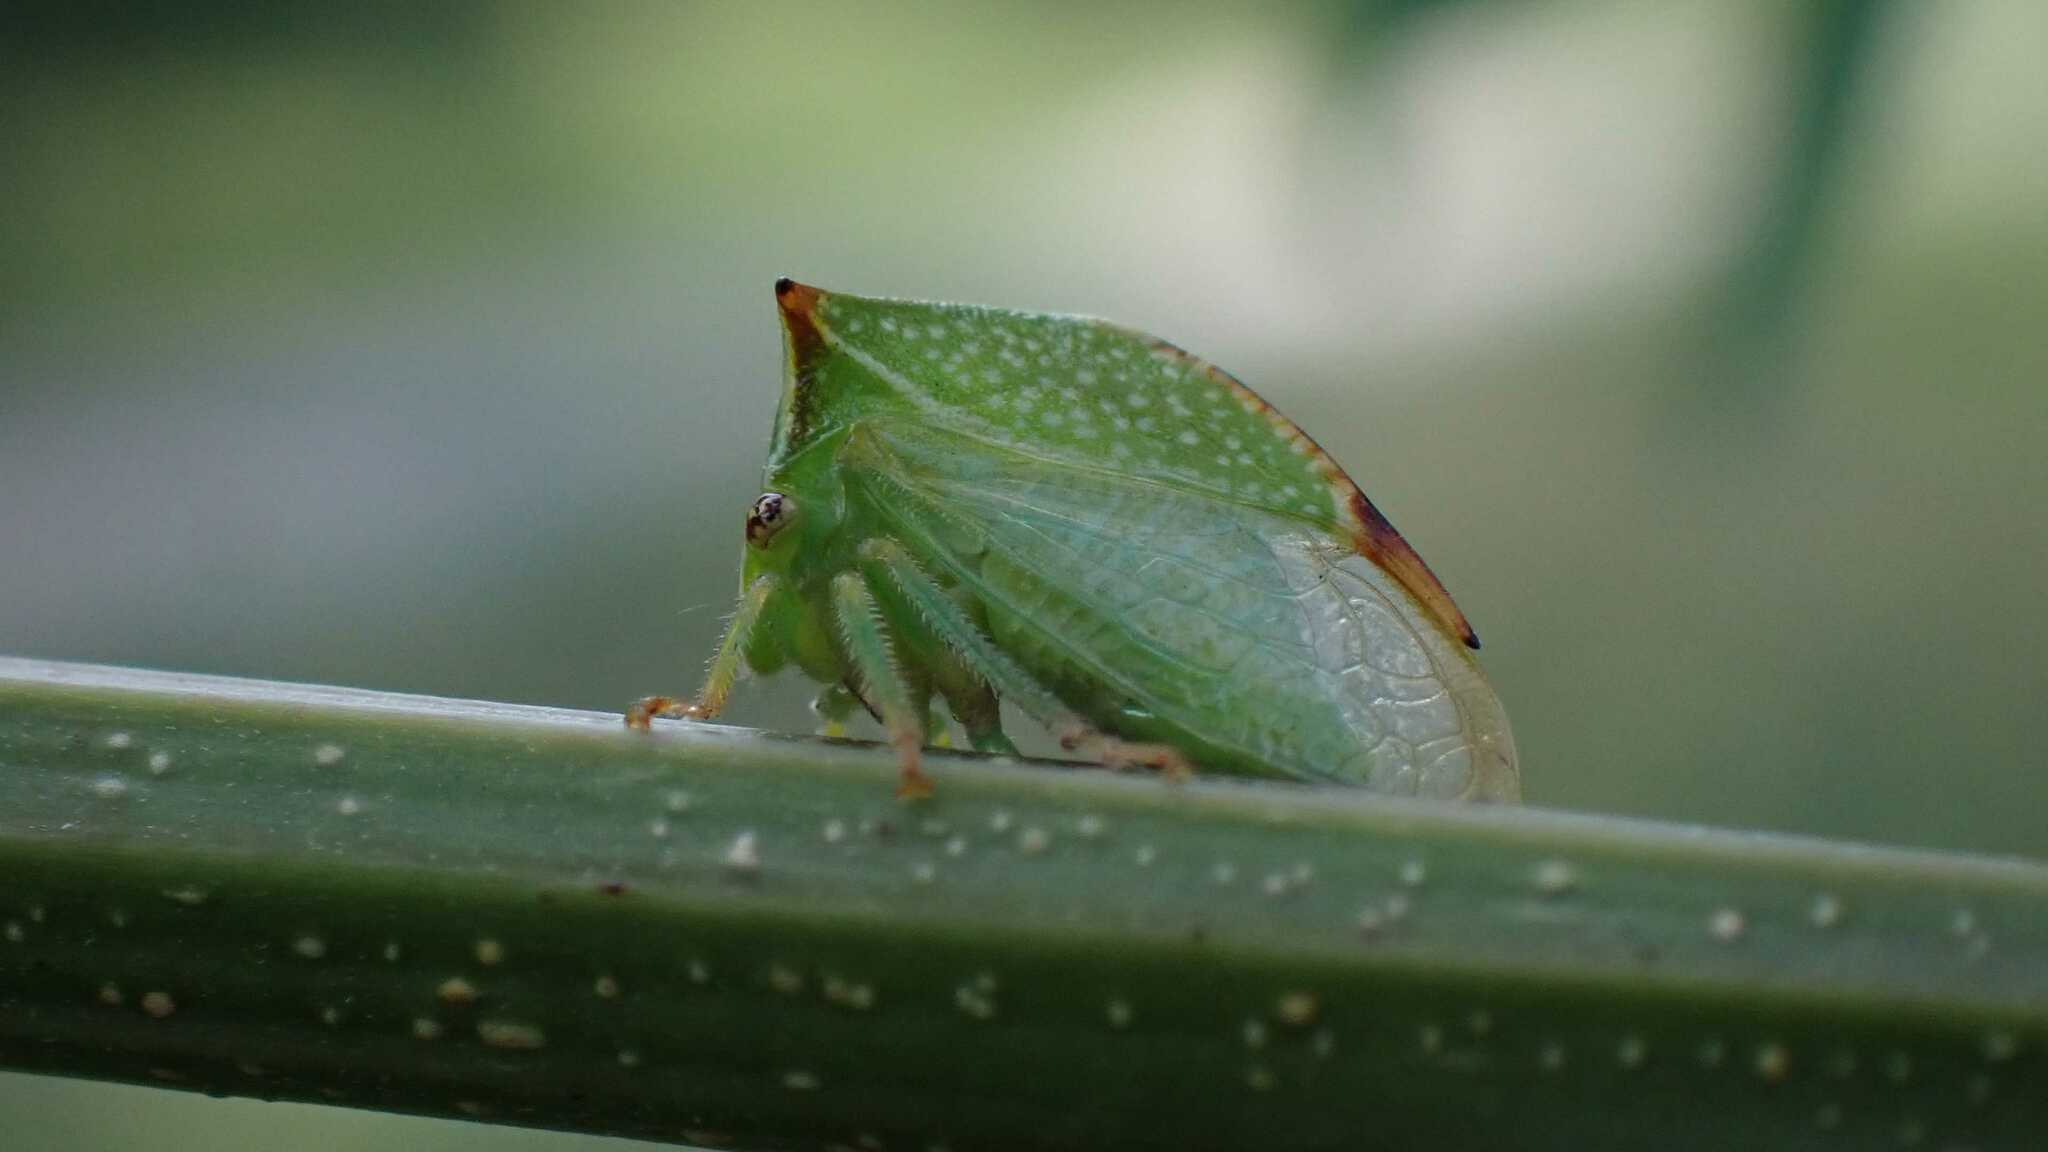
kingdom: Animalia
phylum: Arthropoda
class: Insecta
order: Hemiptera
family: Membracidae
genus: Stictocephala
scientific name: Stictocephala bisonia
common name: American buffalo treehopper
